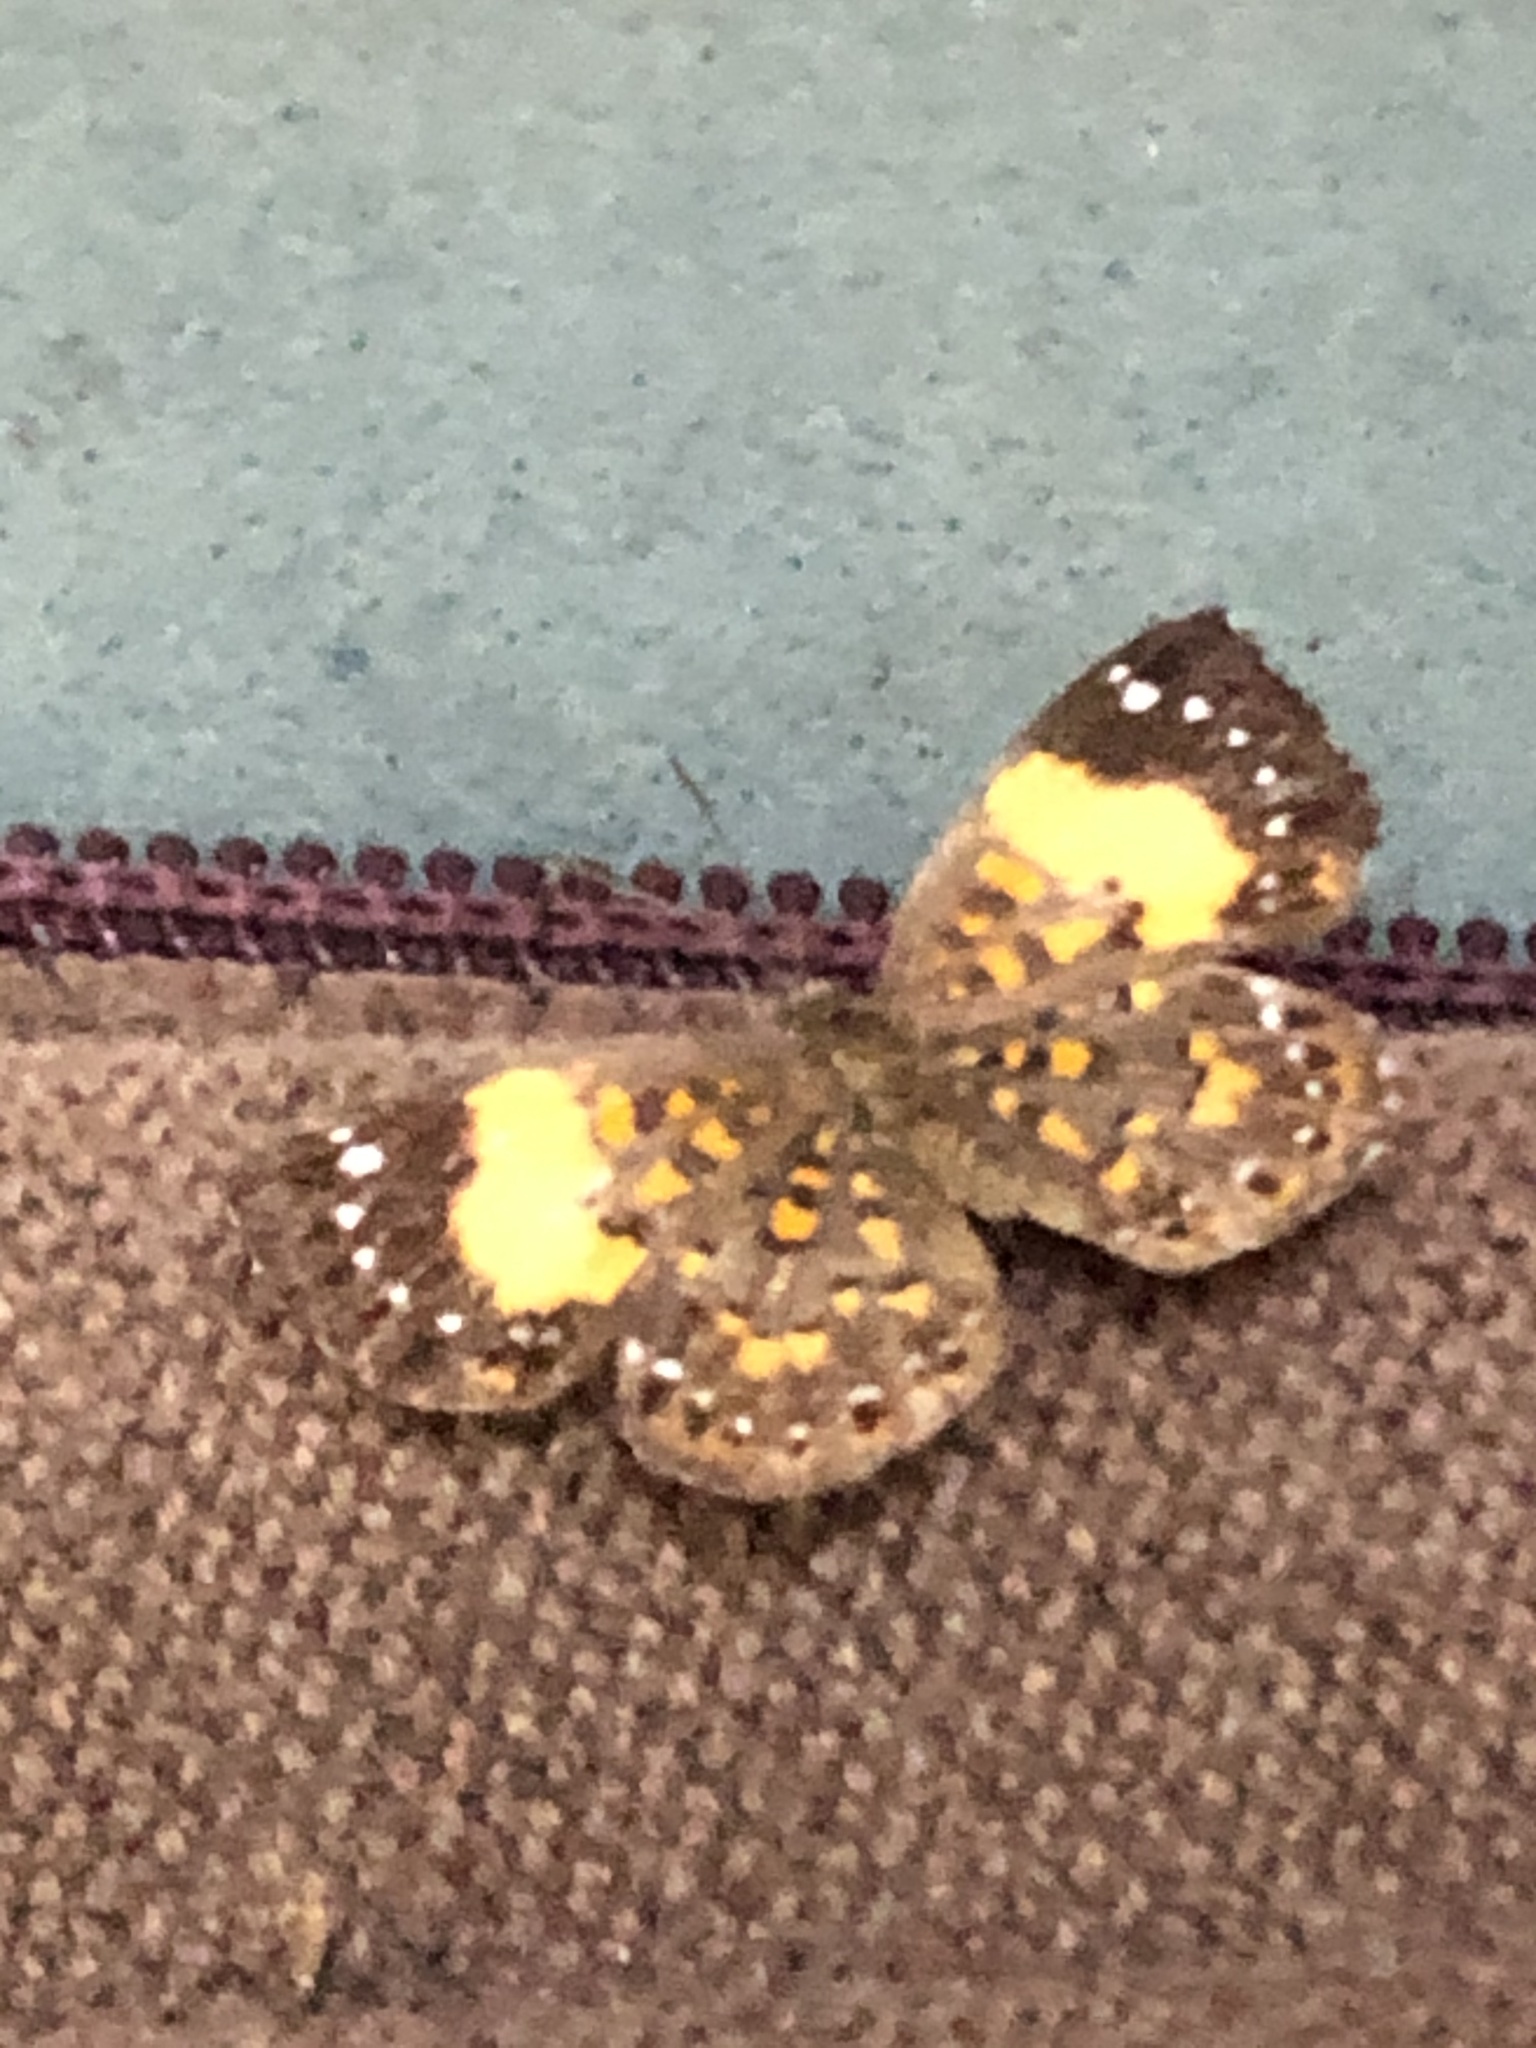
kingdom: Animalia
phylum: Arthropoda
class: Insecta
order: Lepidoptera
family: Riodinidae
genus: Polystichtis
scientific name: Polystichtis emylius
